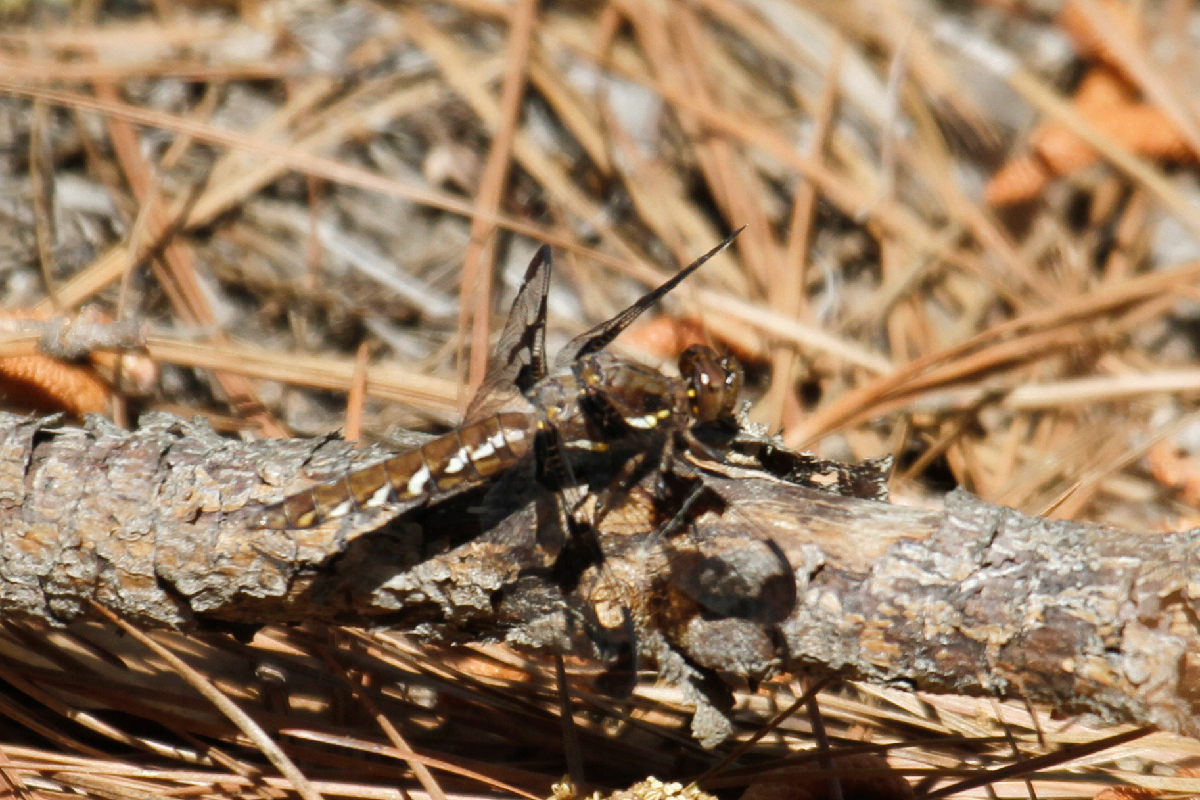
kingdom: Animalia
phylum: Arthropoda
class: Insecta
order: Odonata
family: Libellulidae
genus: Plathemis
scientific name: Plathemis lydia
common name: Common whitetail
